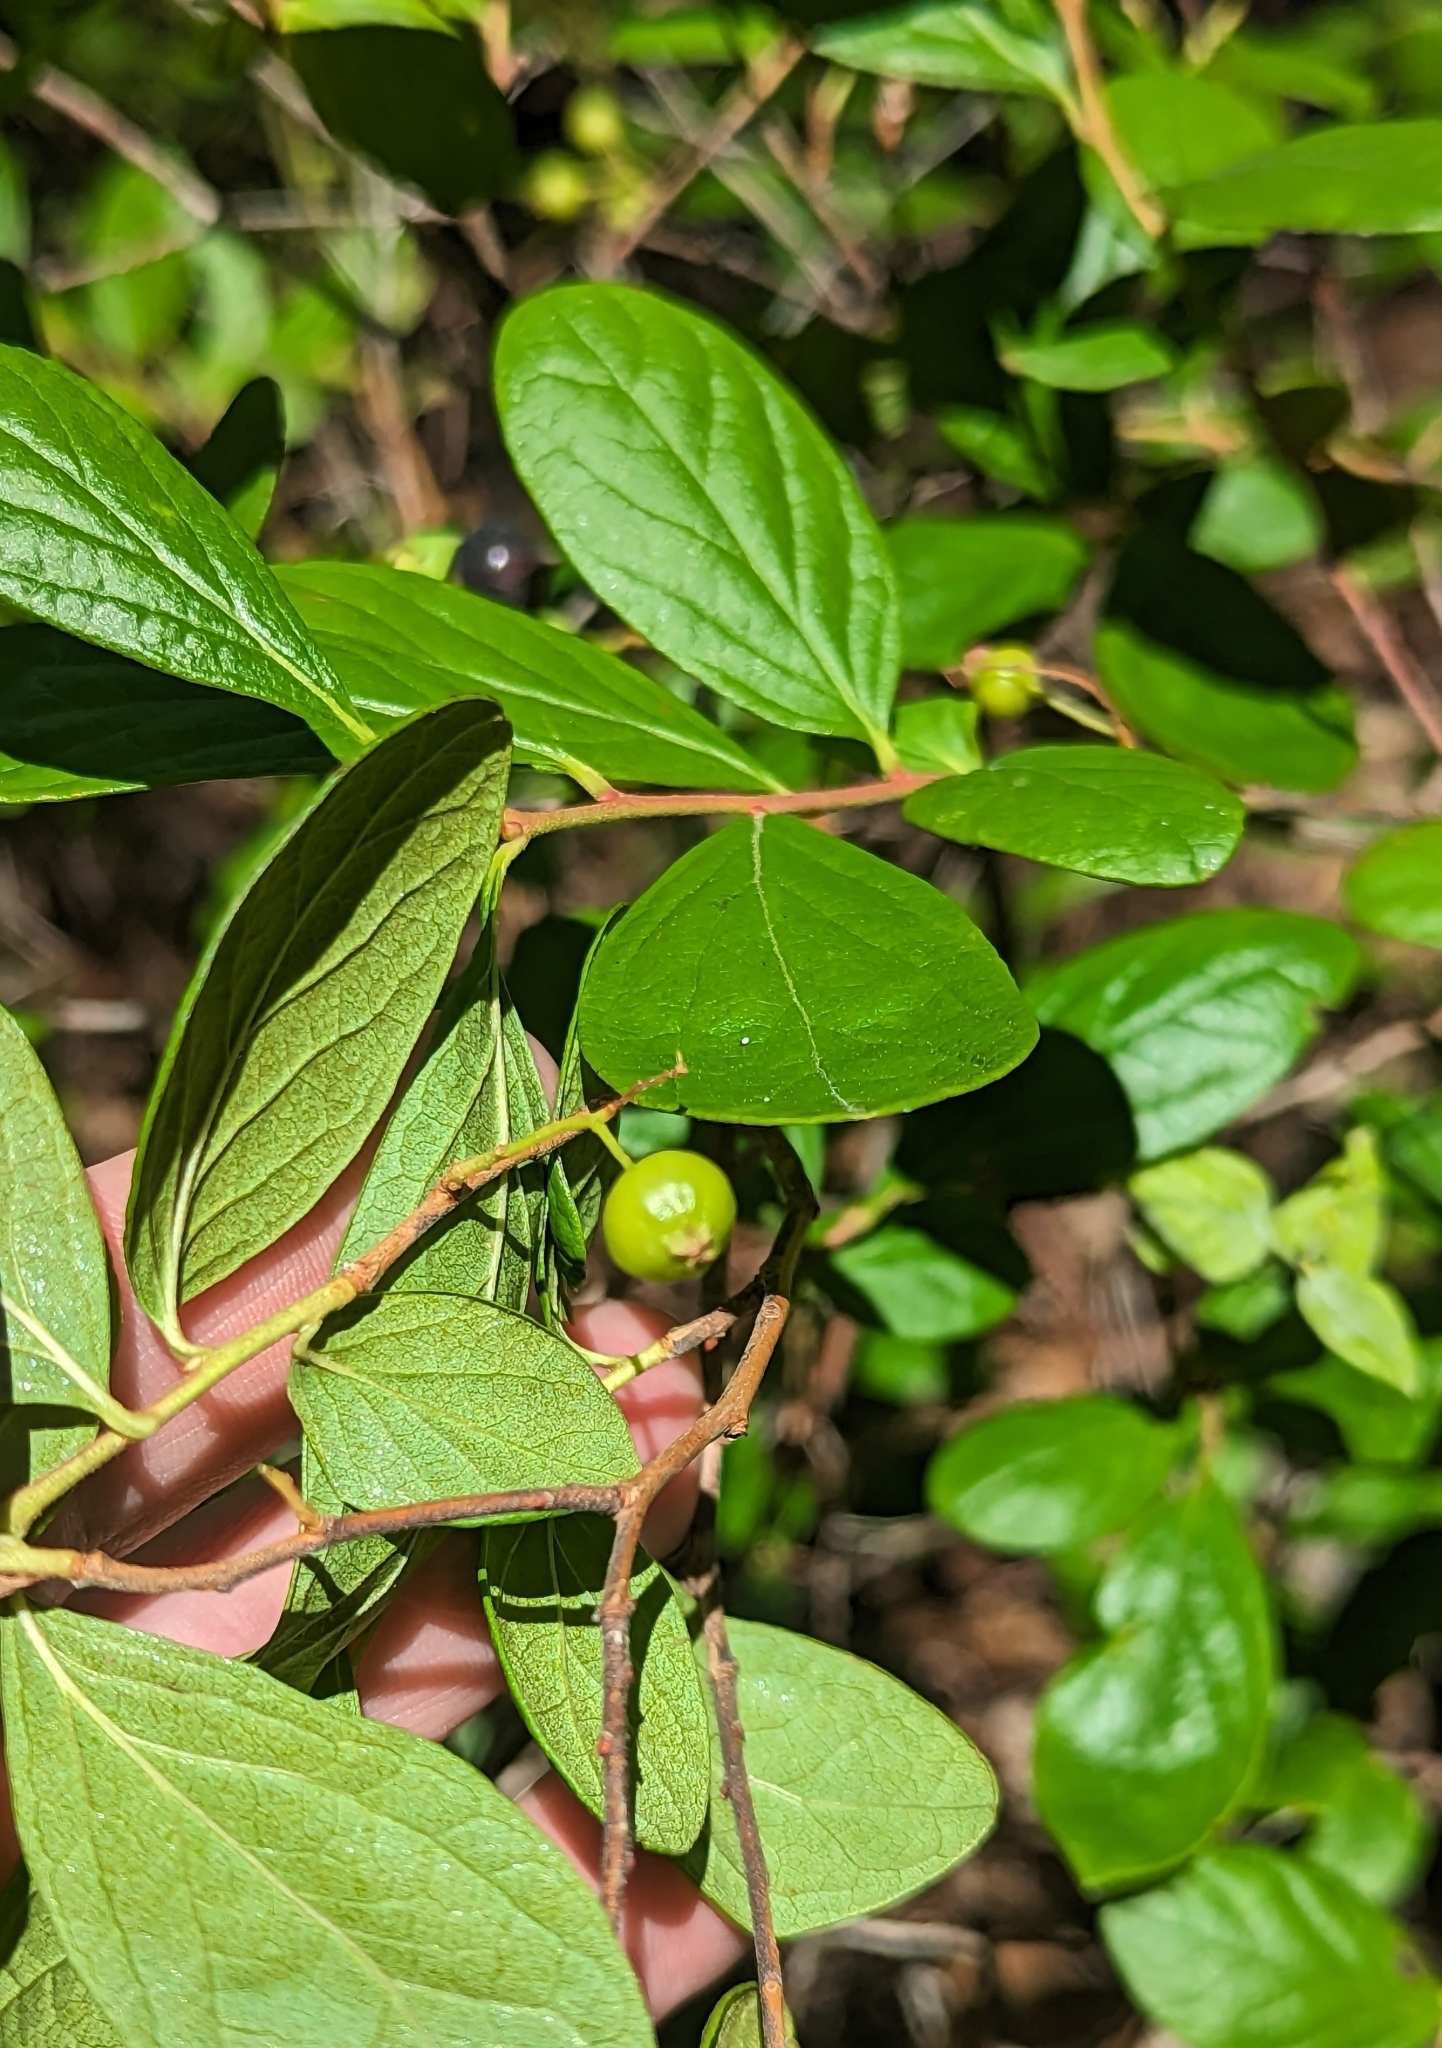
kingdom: Plantae
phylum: Tracheophyta
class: Magnoliopsida
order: Ericales
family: Ericaceae
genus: Gaylussacia
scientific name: Gaylussacia baccata
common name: Black huckleberry
